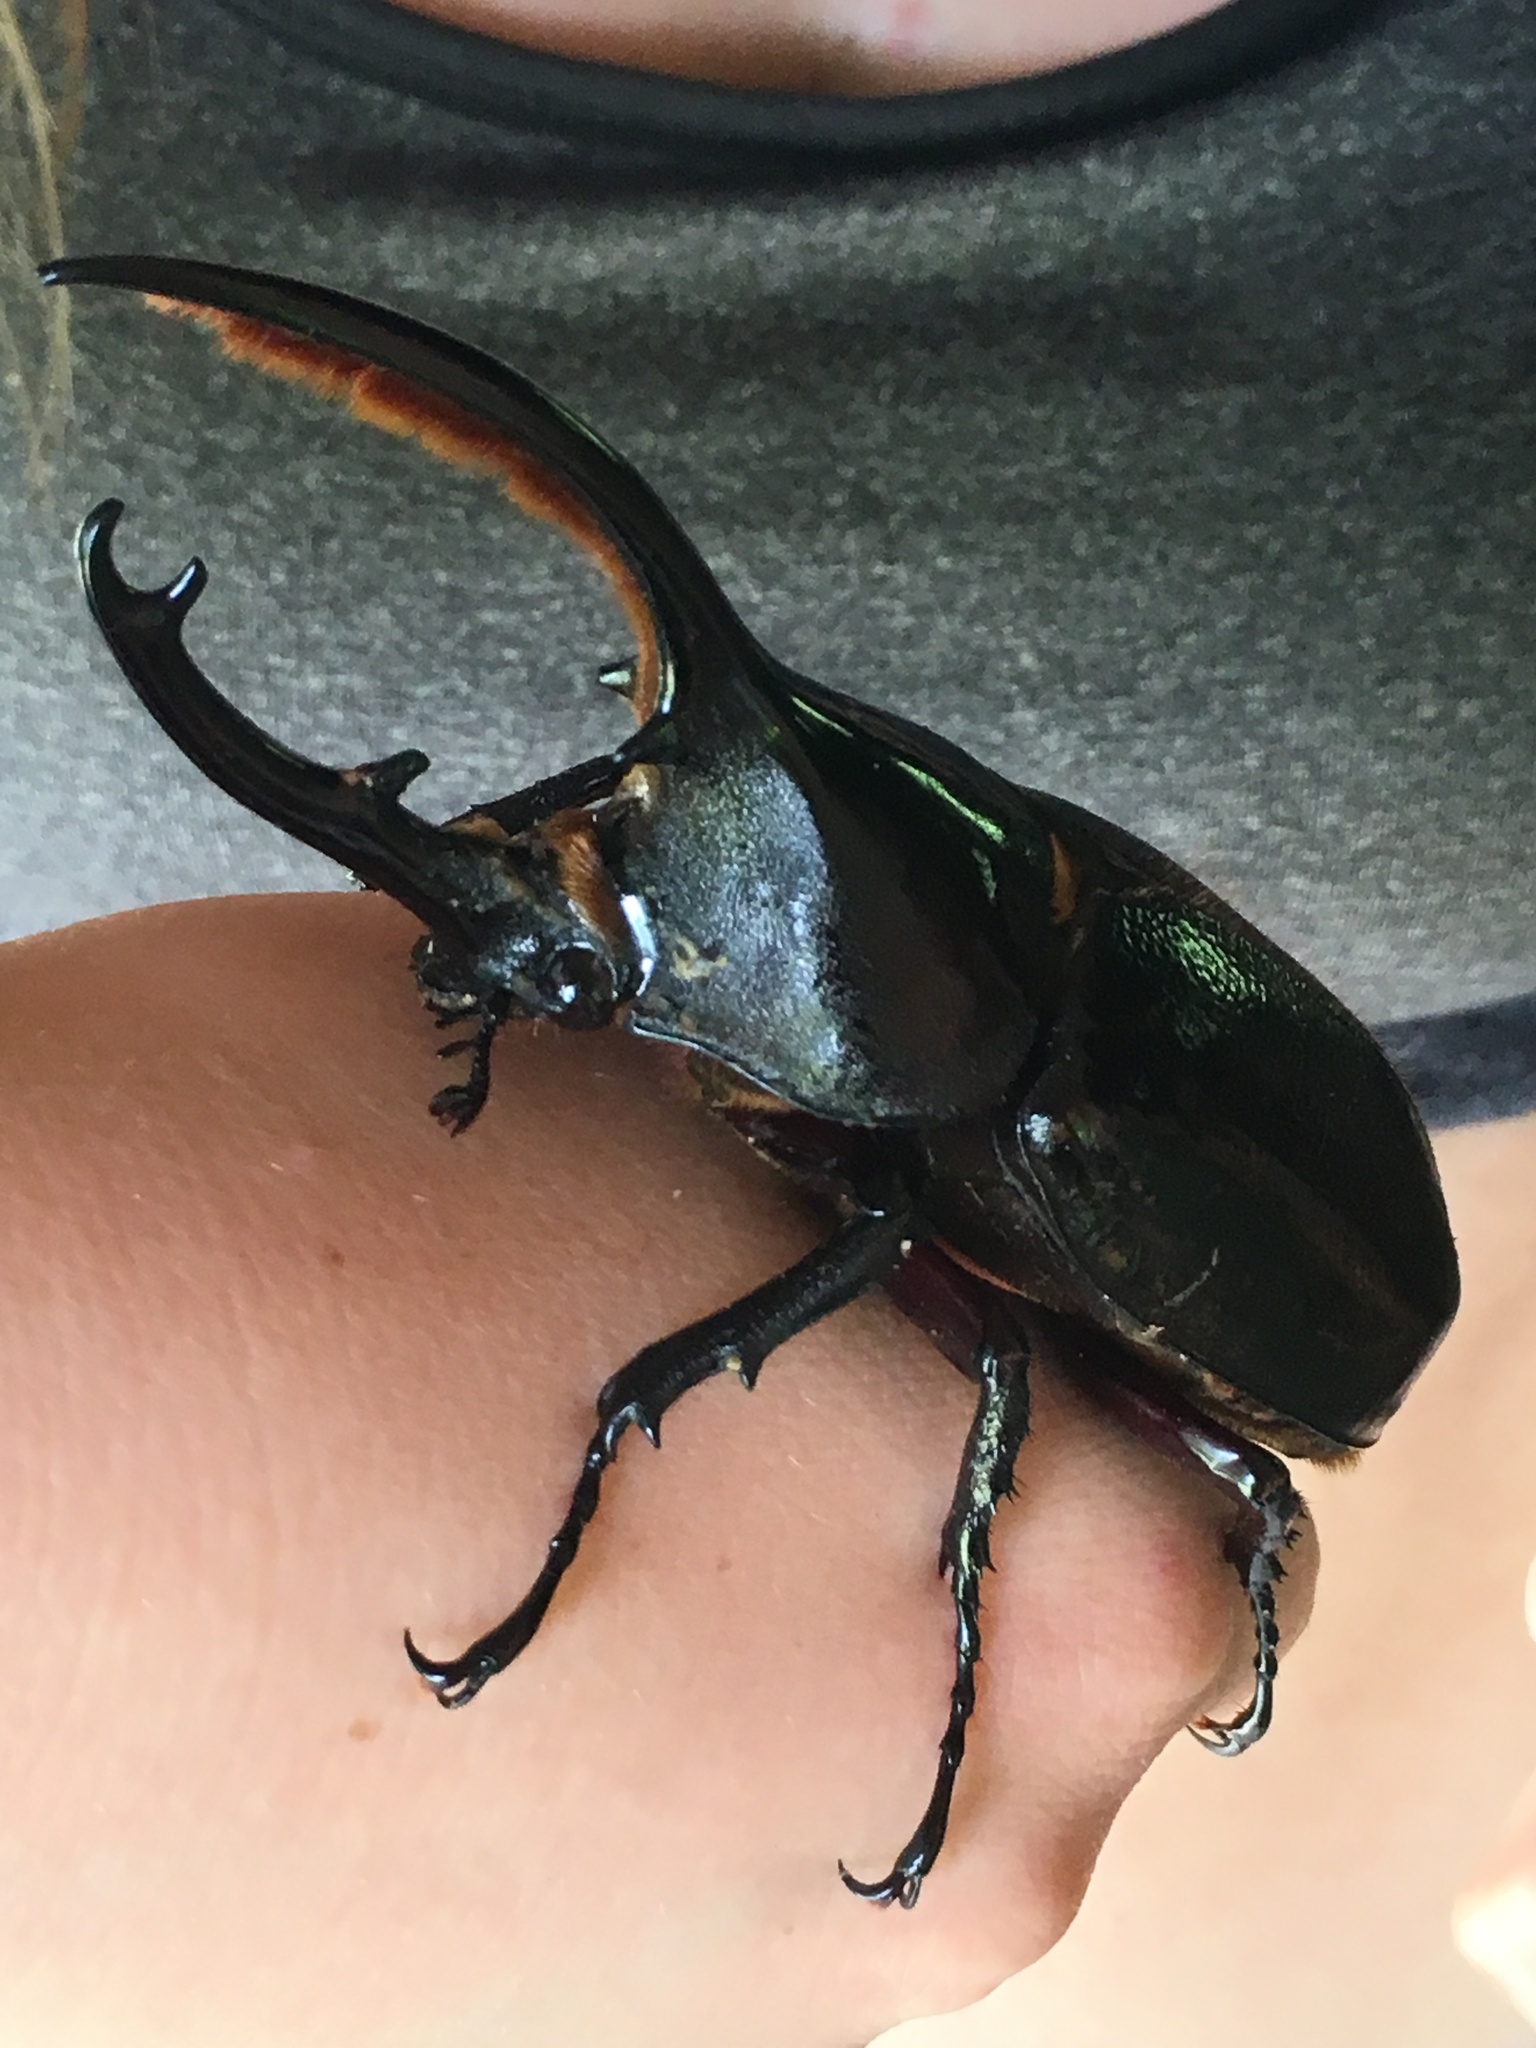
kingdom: Animalia
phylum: Arthropoda
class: Insecta
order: Coleoptera
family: Scarabaeidae
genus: Dynastes
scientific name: Dynastes
